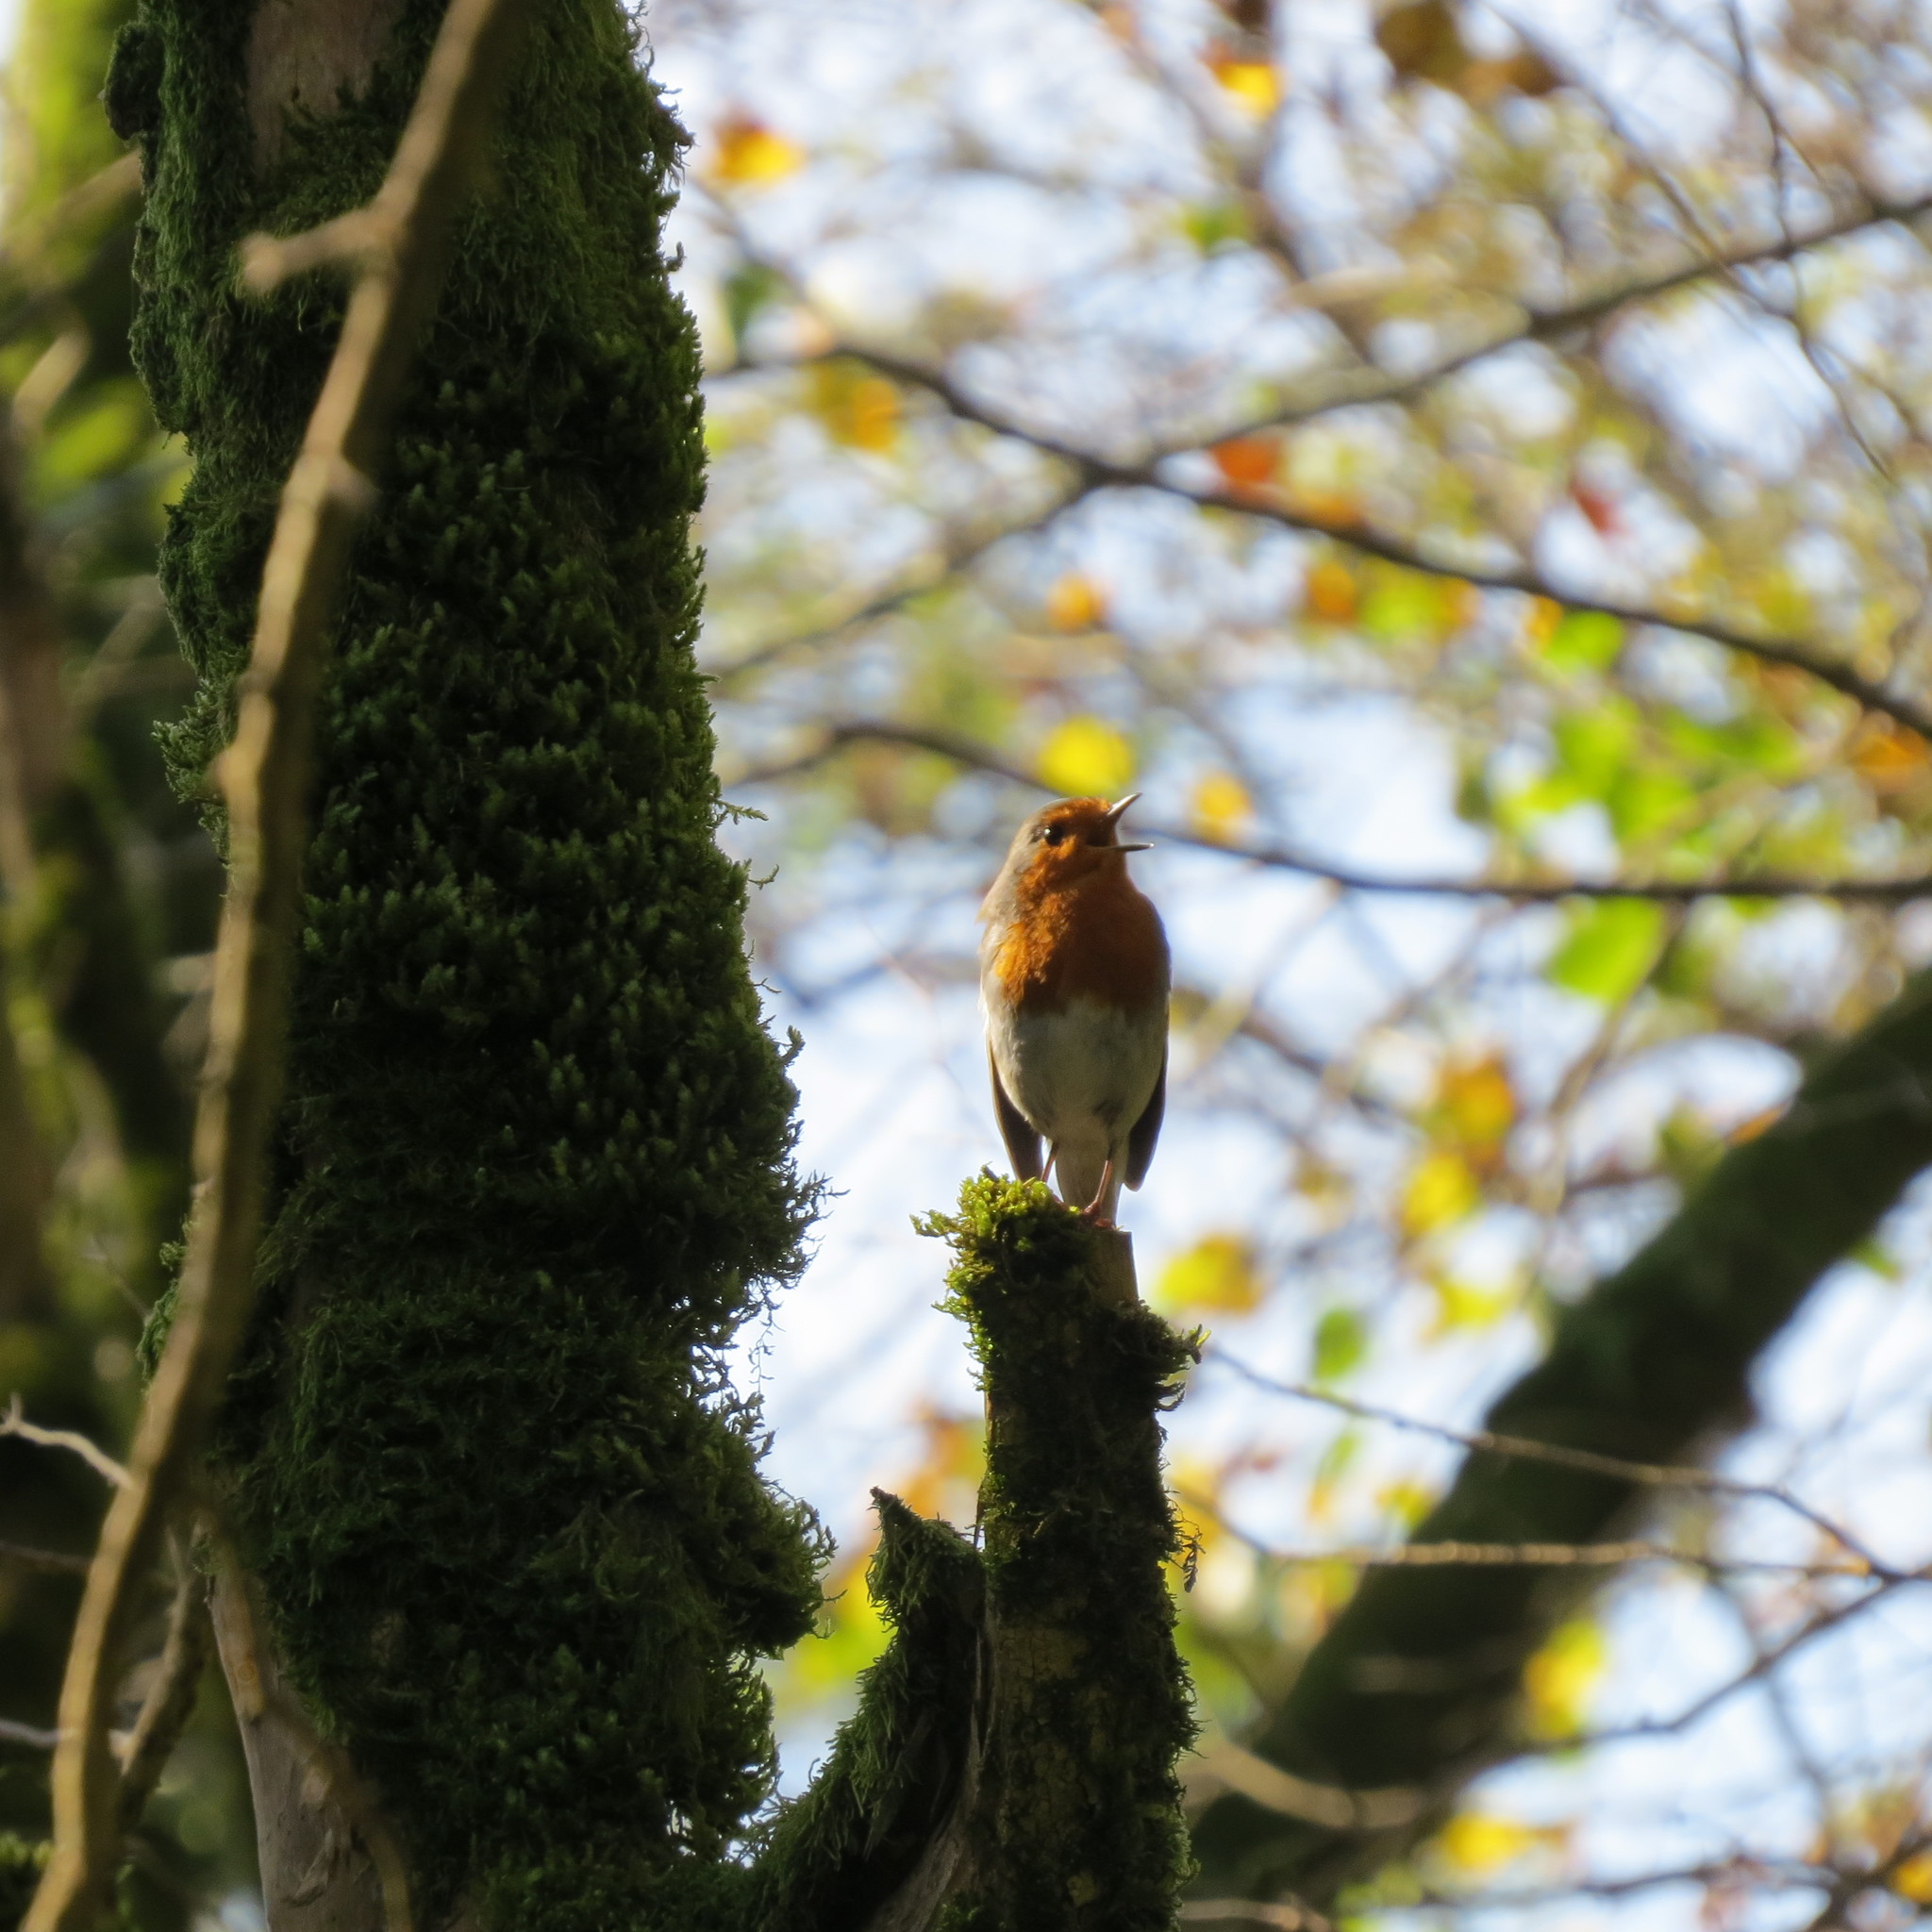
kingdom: Animalia
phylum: Chordata
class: Aves
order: Passeriformes
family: Muscicapidae
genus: Erithacus
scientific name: Erithacus rubecula
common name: European robin
